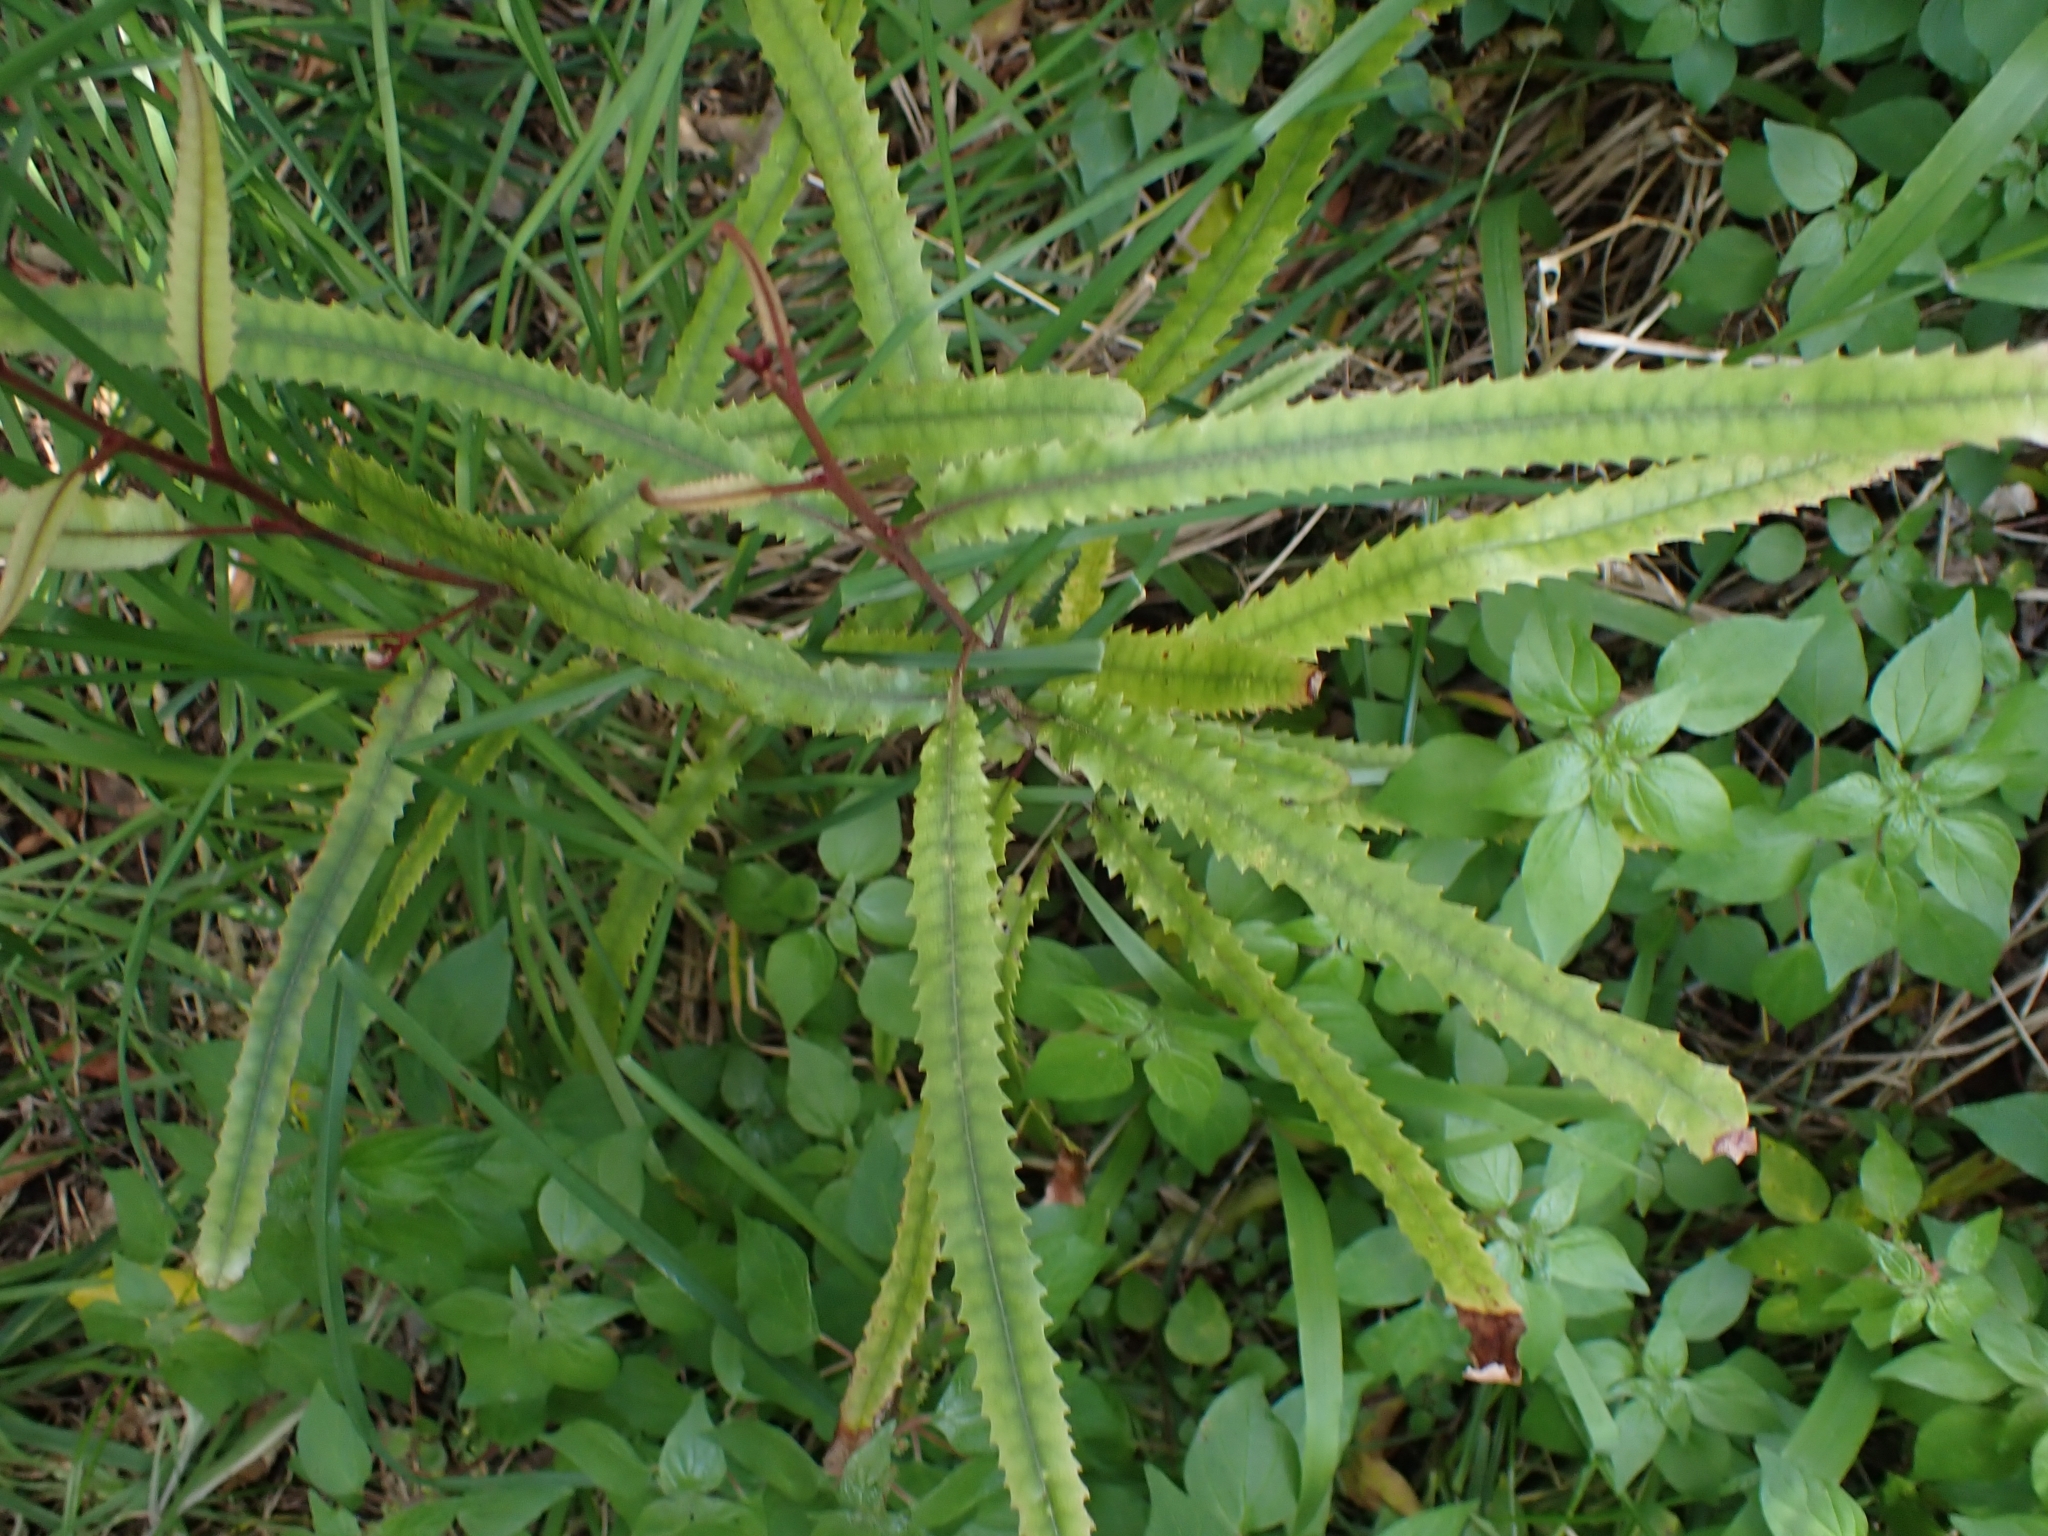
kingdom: Plantae
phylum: Tracheophyta
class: Magnoliopsida
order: Proteales
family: Proteaceae
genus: Knightia
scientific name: Knightia excelsa
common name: New zealand-honeysuckle
